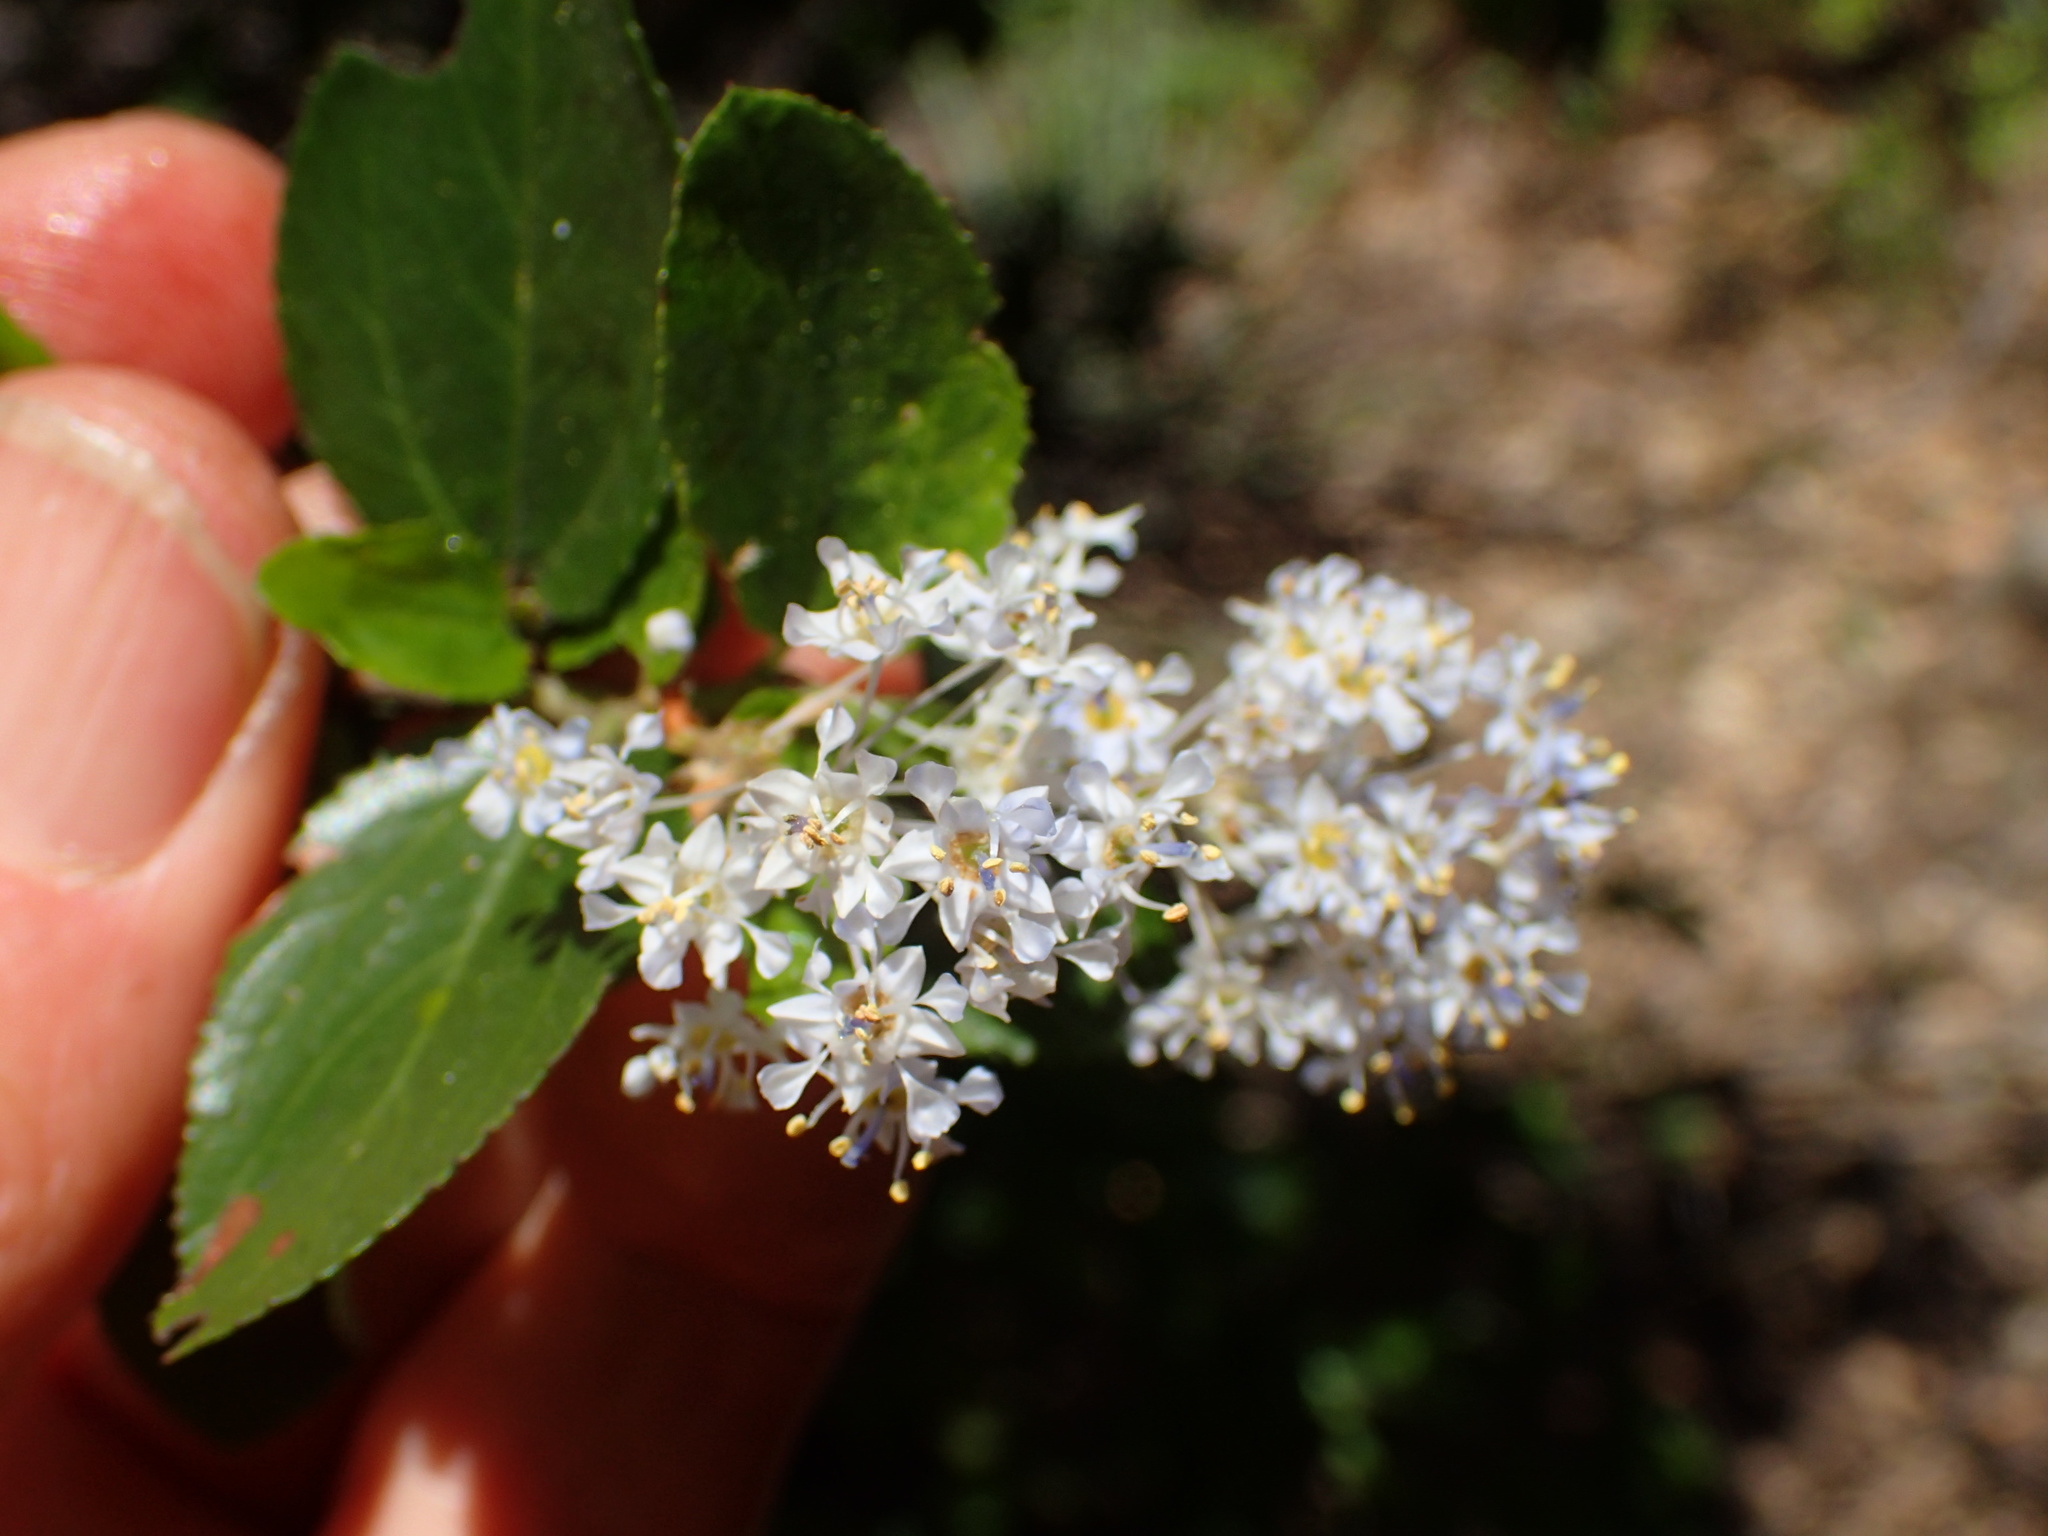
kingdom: Plantae
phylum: Tracheophyta
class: Magnoliopsida
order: Rosales
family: Rhamnaceae
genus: Ceanothus
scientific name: Ceanothus oliganthus
